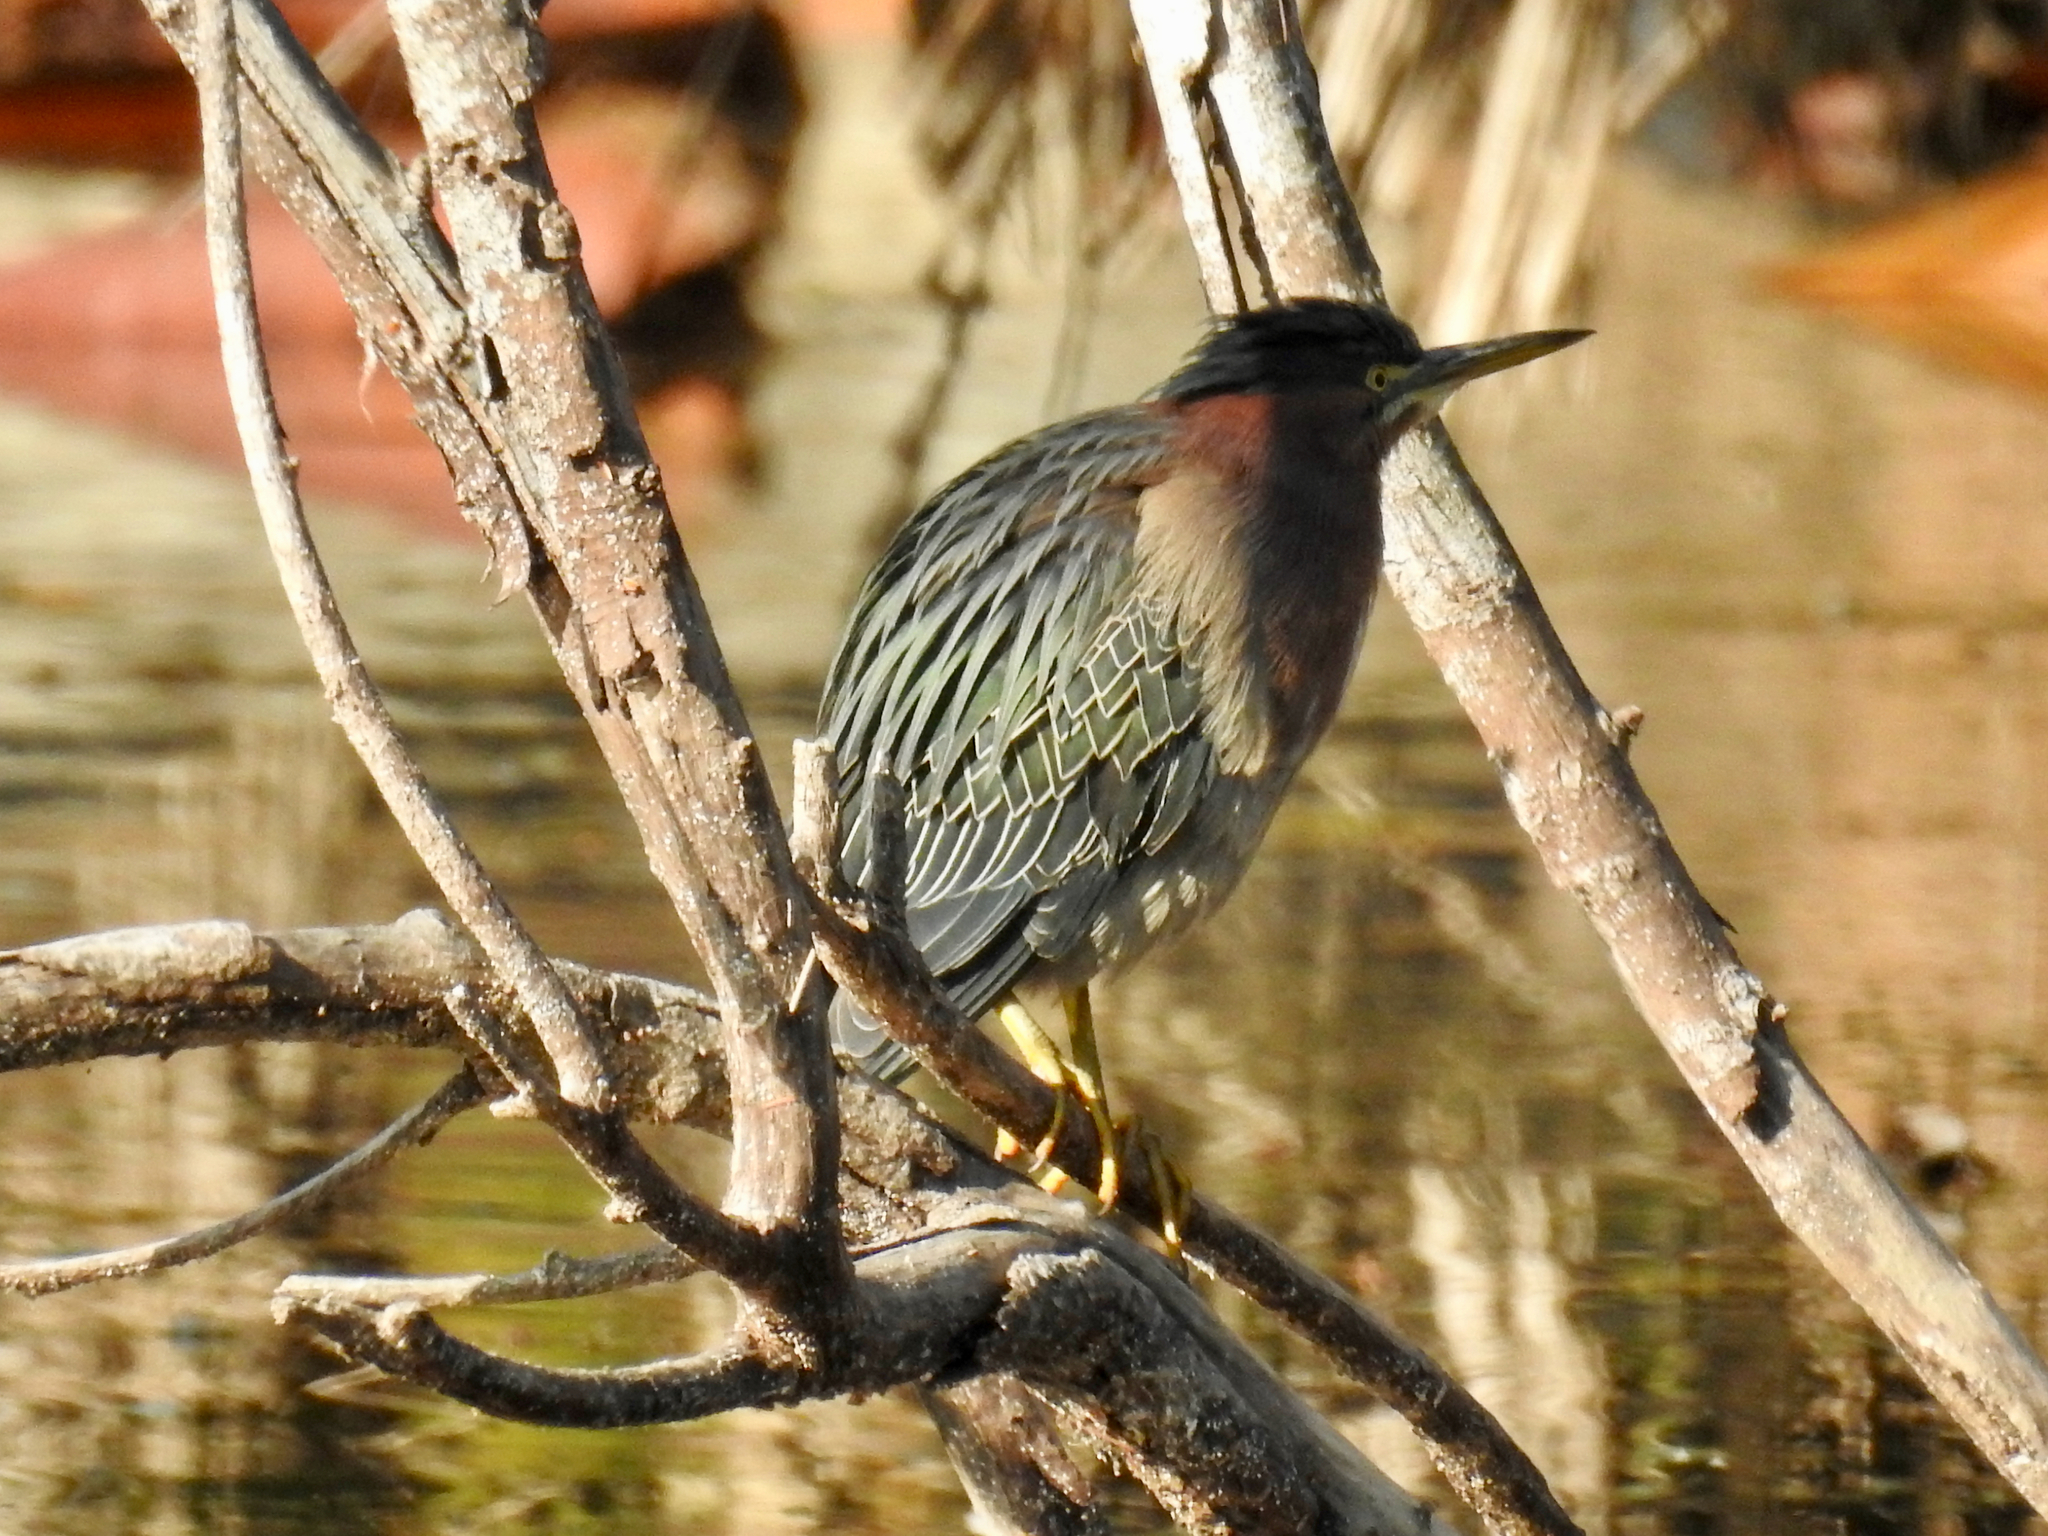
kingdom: Animalia
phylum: Chordata
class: Aves
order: Pelecaniformes
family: Ardeidae
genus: Butorides
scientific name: Butorides virescens
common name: Green heron
